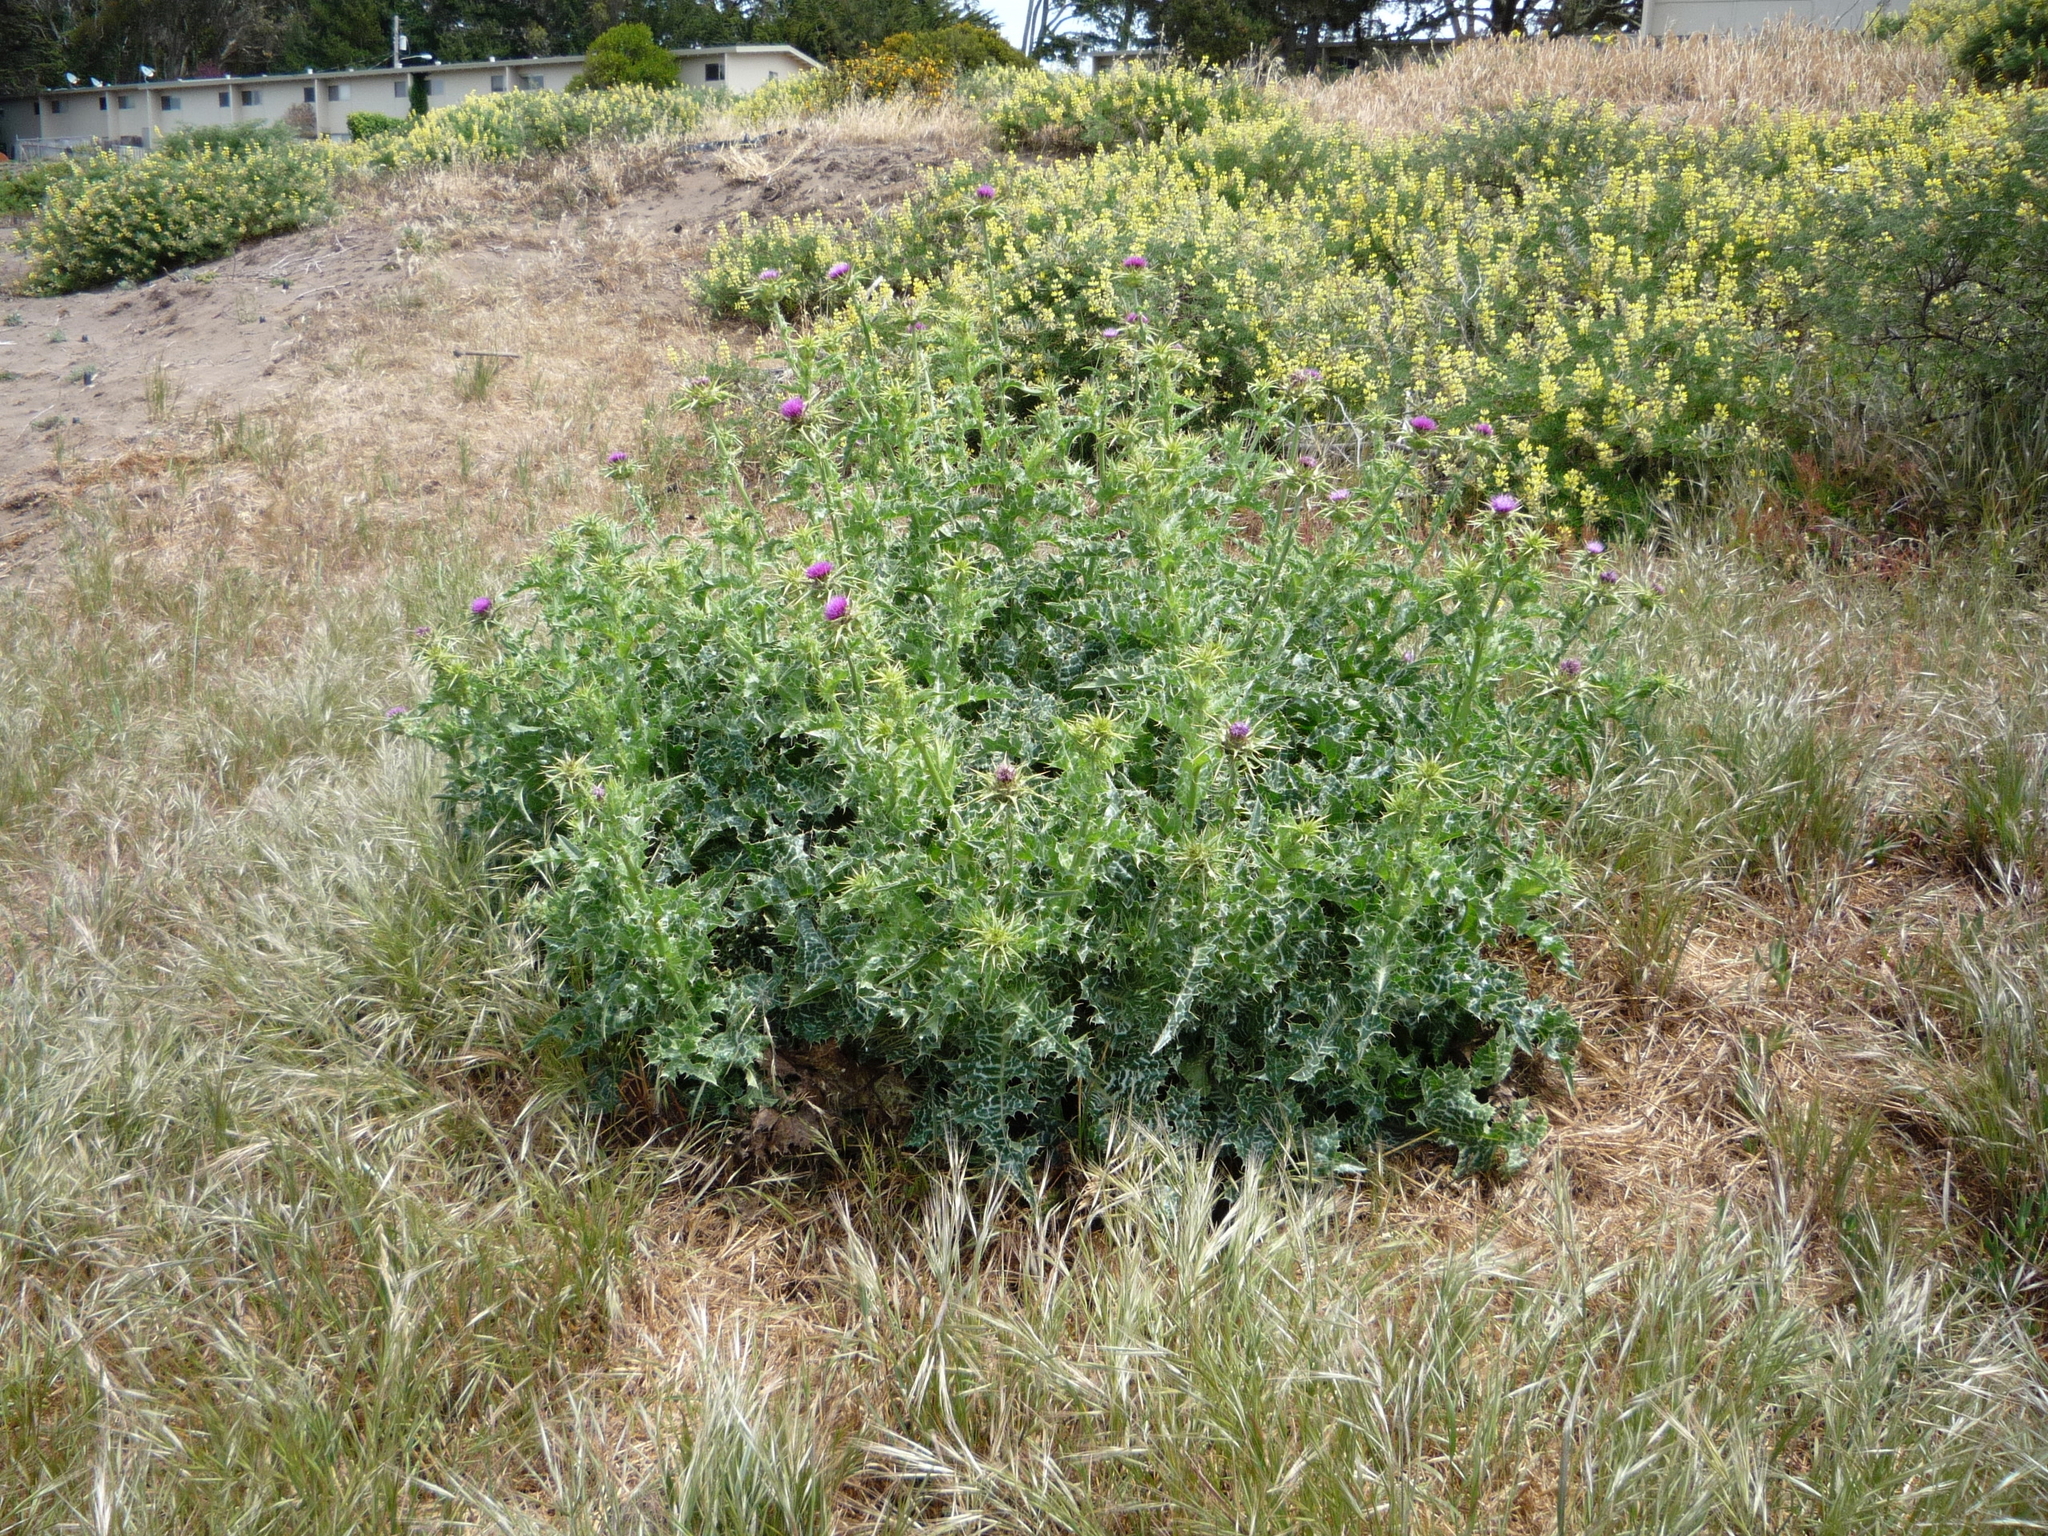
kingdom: Plantae
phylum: Tracheophyta
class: Magnoliopsida
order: Asterales
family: Asteraceae
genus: Silybum
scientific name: Silybum marianum
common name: Milk thistle
